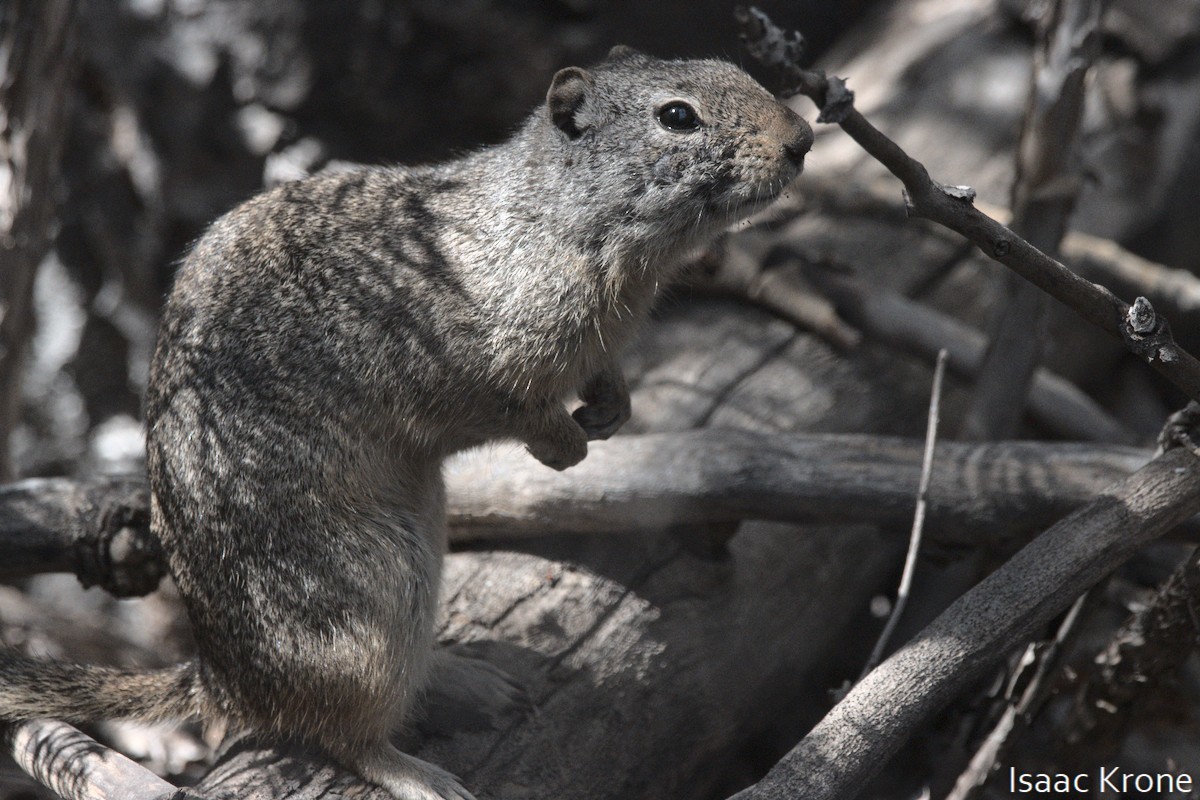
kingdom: Animalia
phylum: Chordata
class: Mammalia
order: Rodentia
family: Sciuridae
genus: Urocitellus
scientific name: Urocitellus armatus
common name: Uinta ground squirrel
